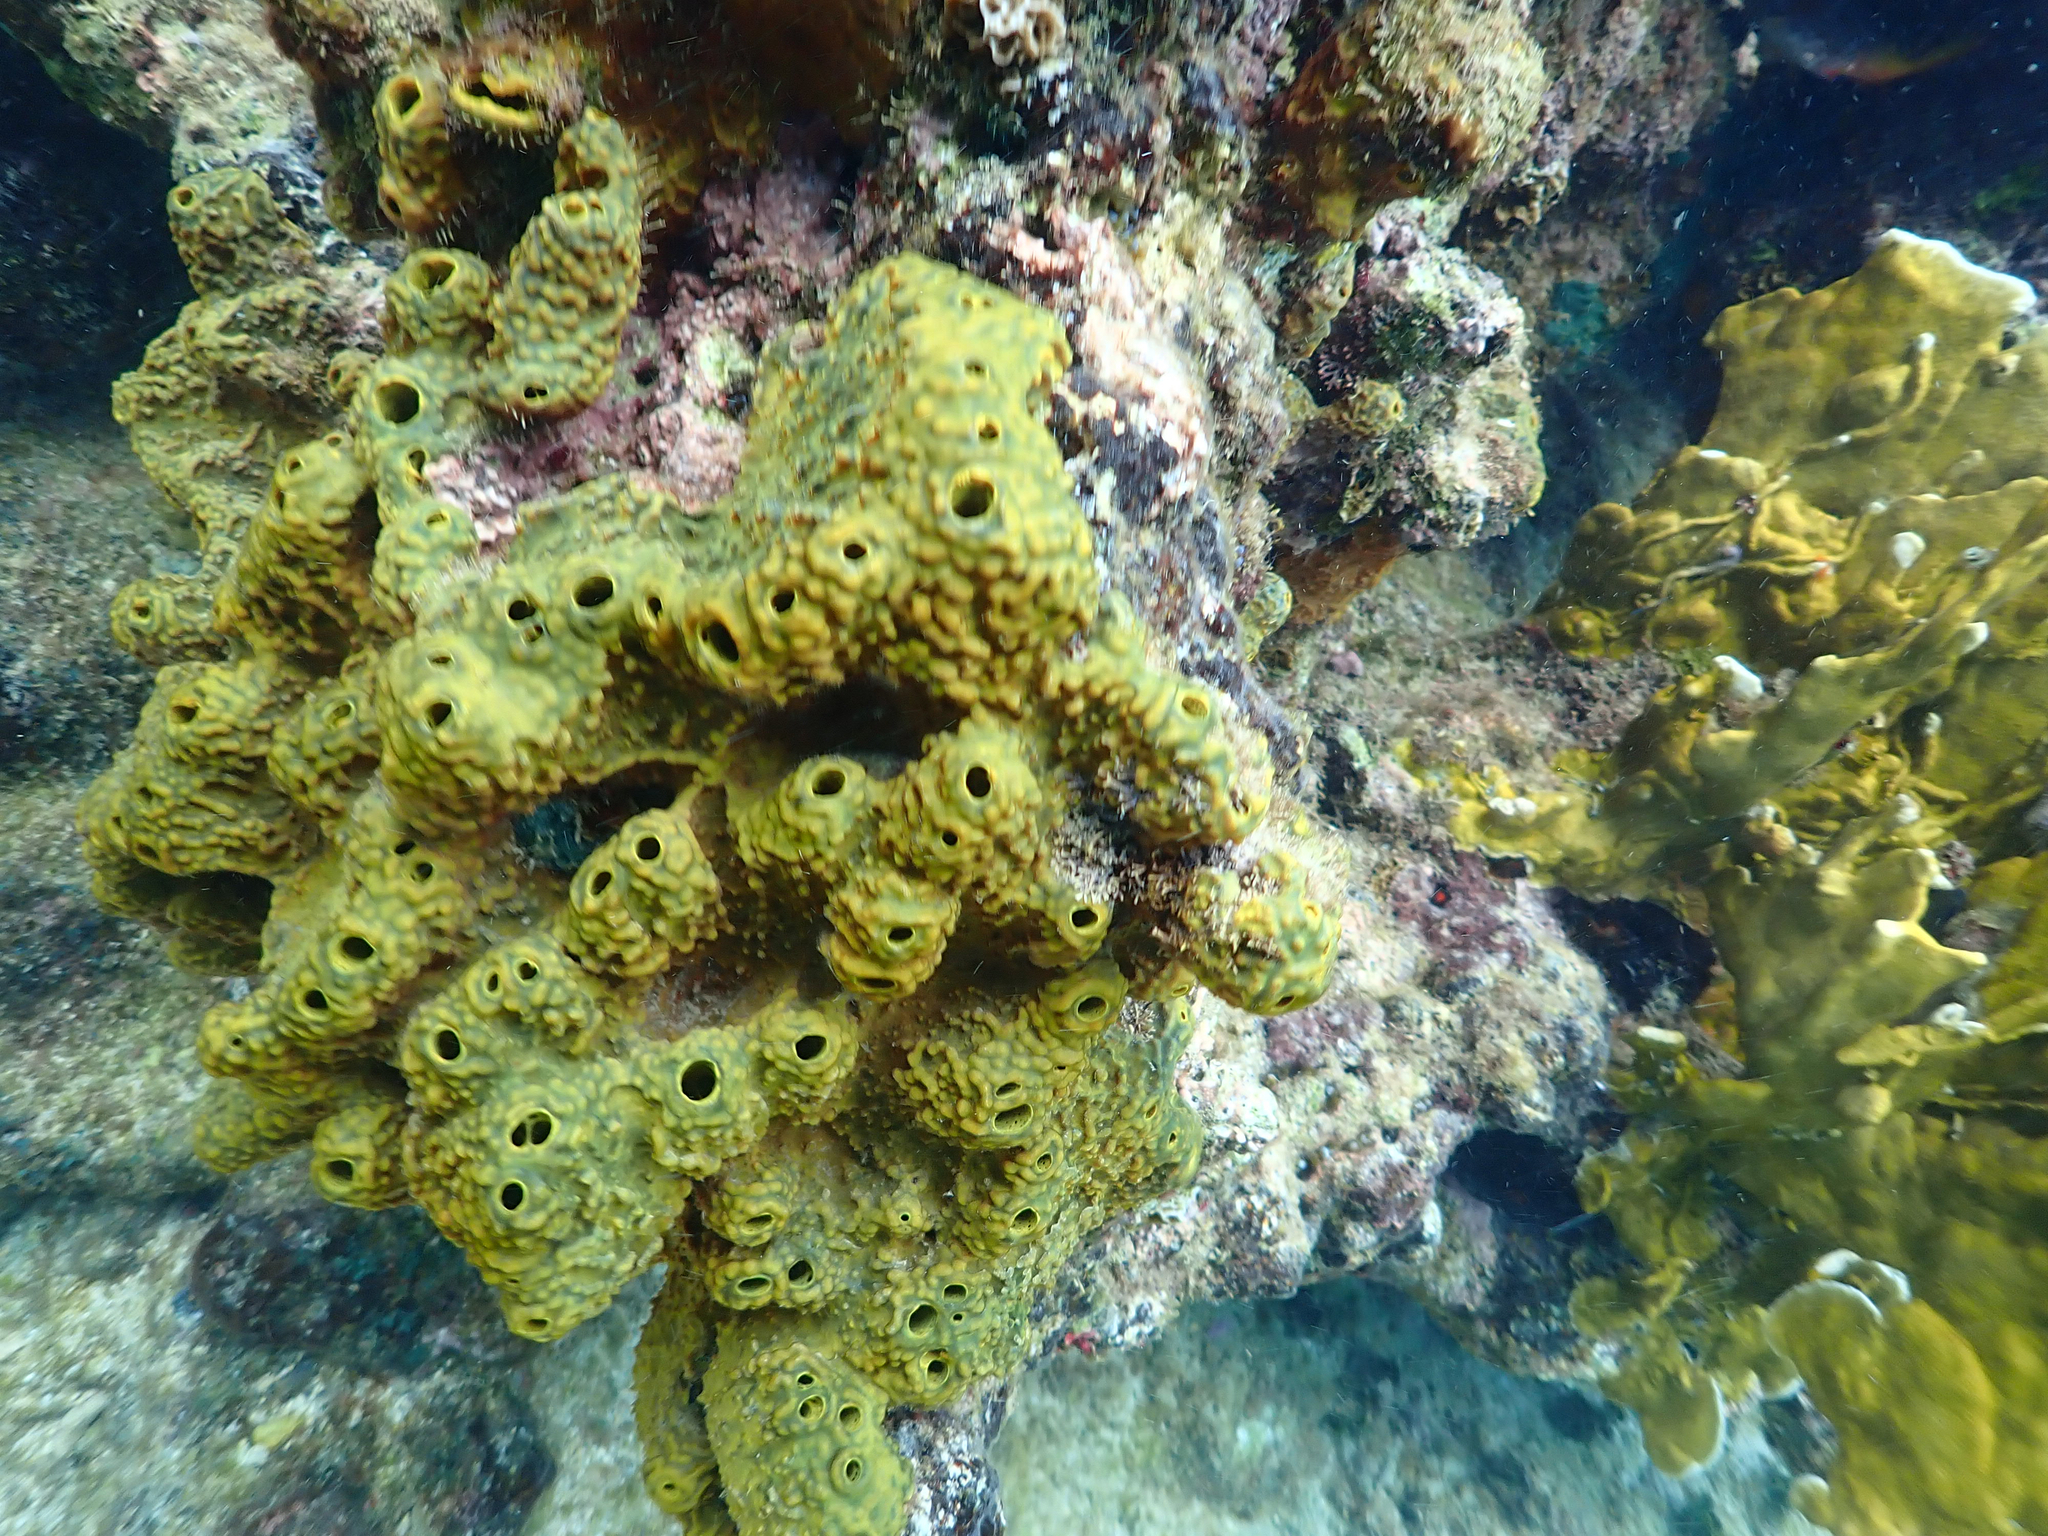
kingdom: Animalia
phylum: Porifera
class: Demospongiae
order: Verongiida
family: Aplysinidae
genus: Verongula
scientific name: Verongula rigida
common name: Pitted sponge
